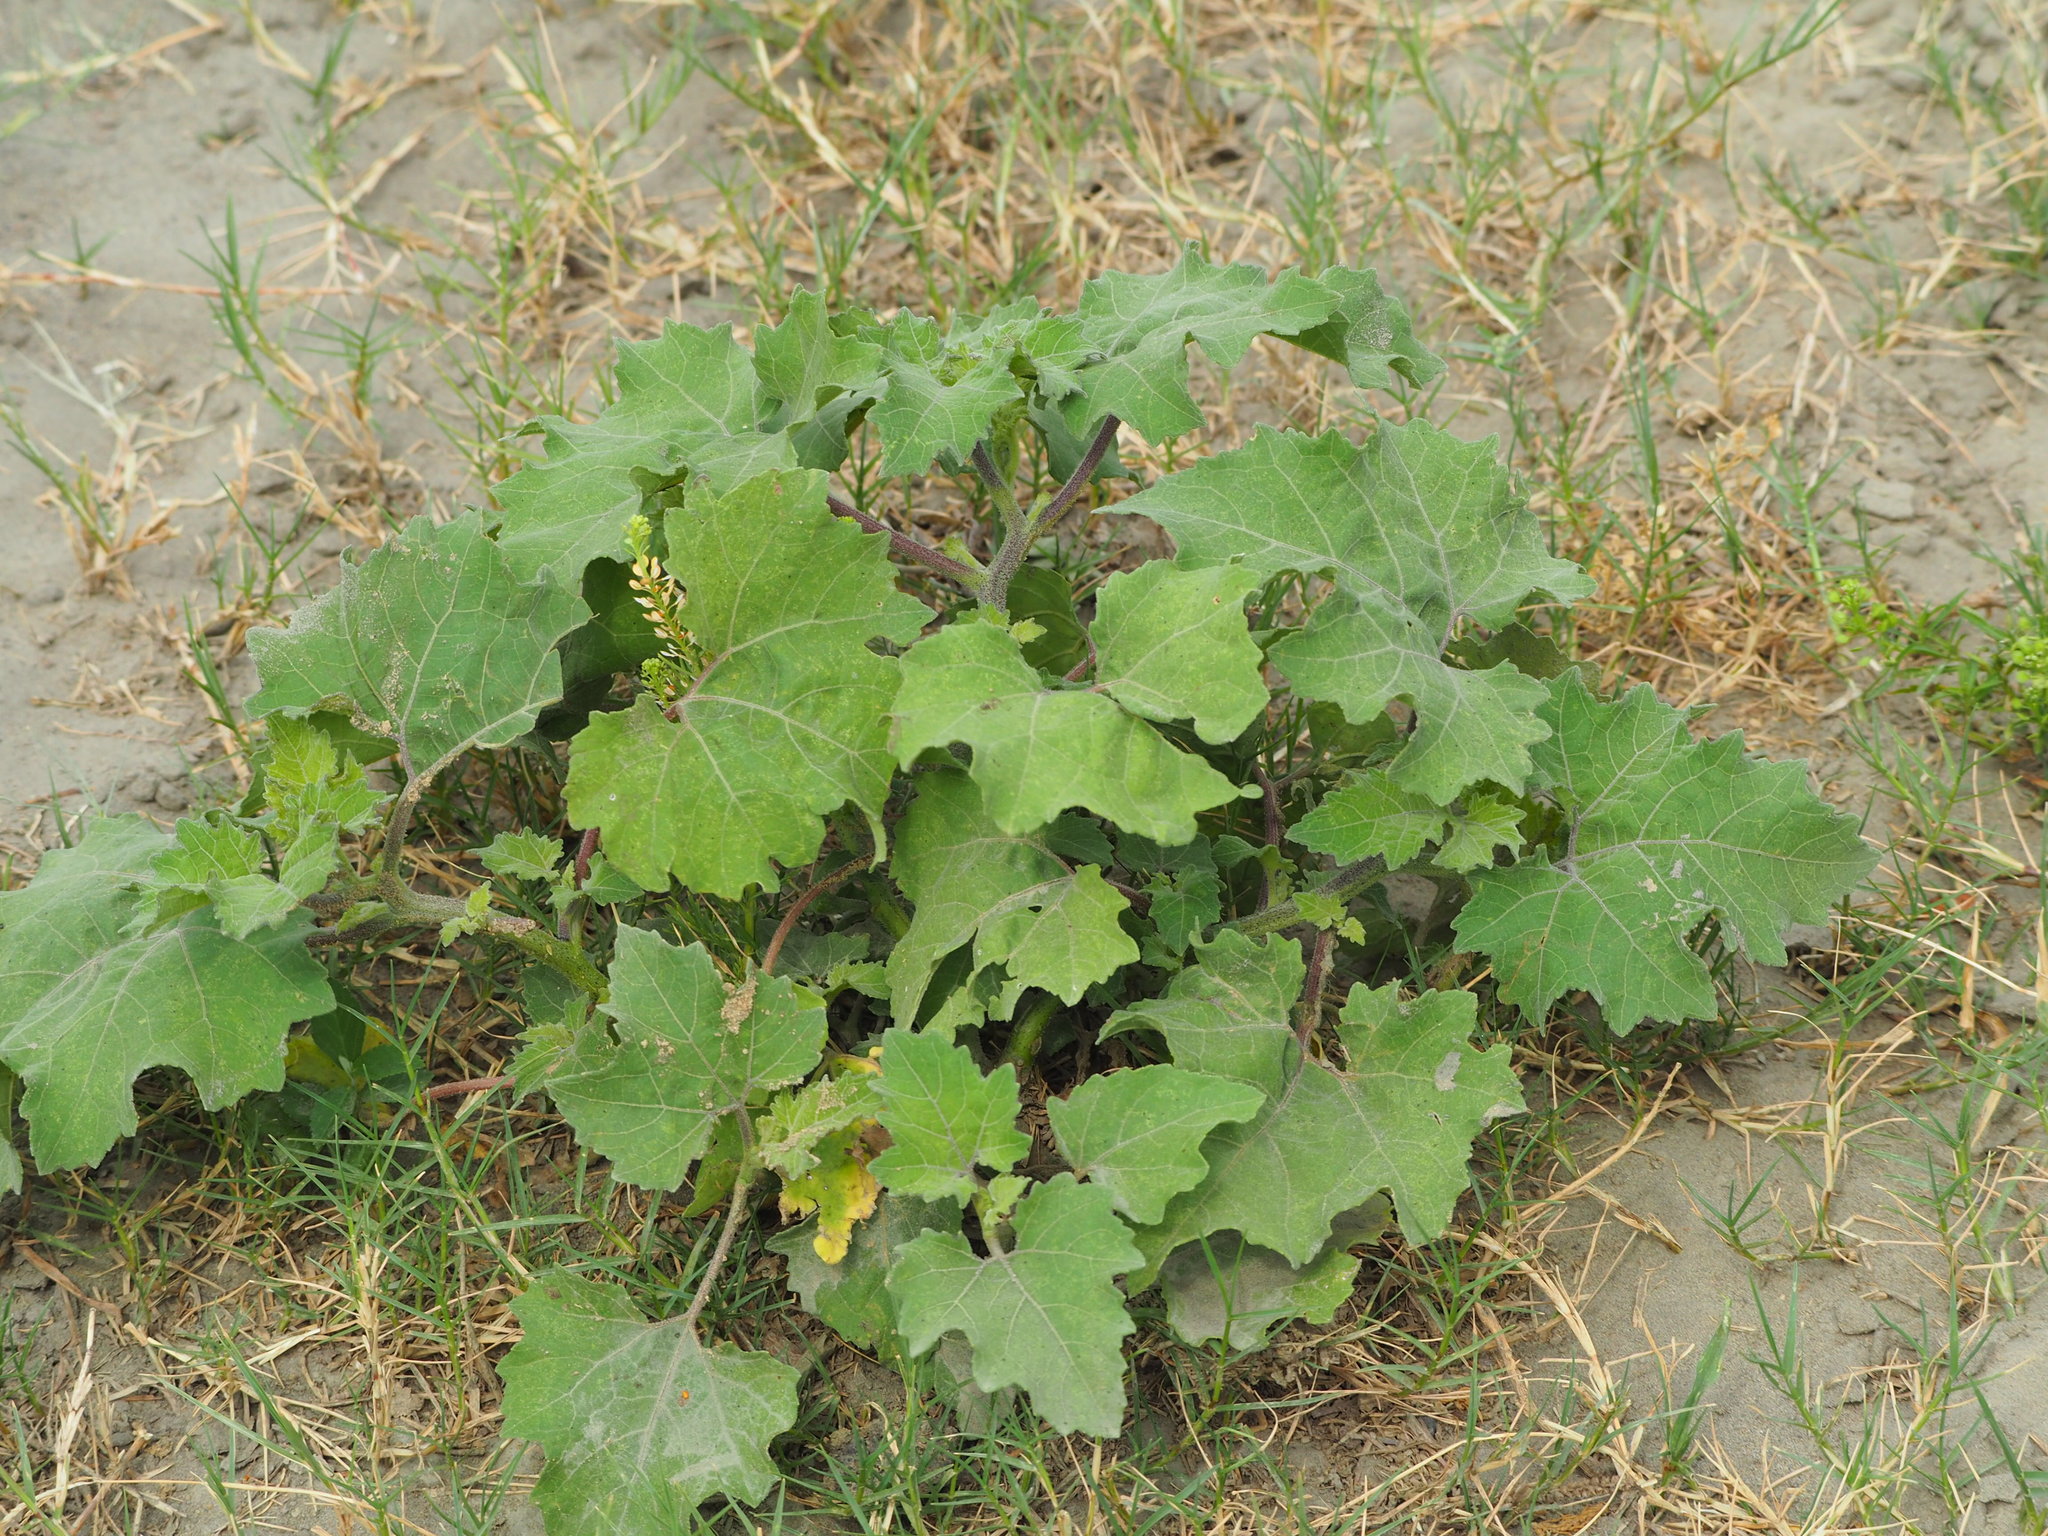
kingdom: Plantae
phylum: Tracheophyta
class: Magnoliopsida
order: Asterales
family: Asteraceae
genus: Xanthium
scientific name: Xanthium strumarium
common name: Rough cocklebur
